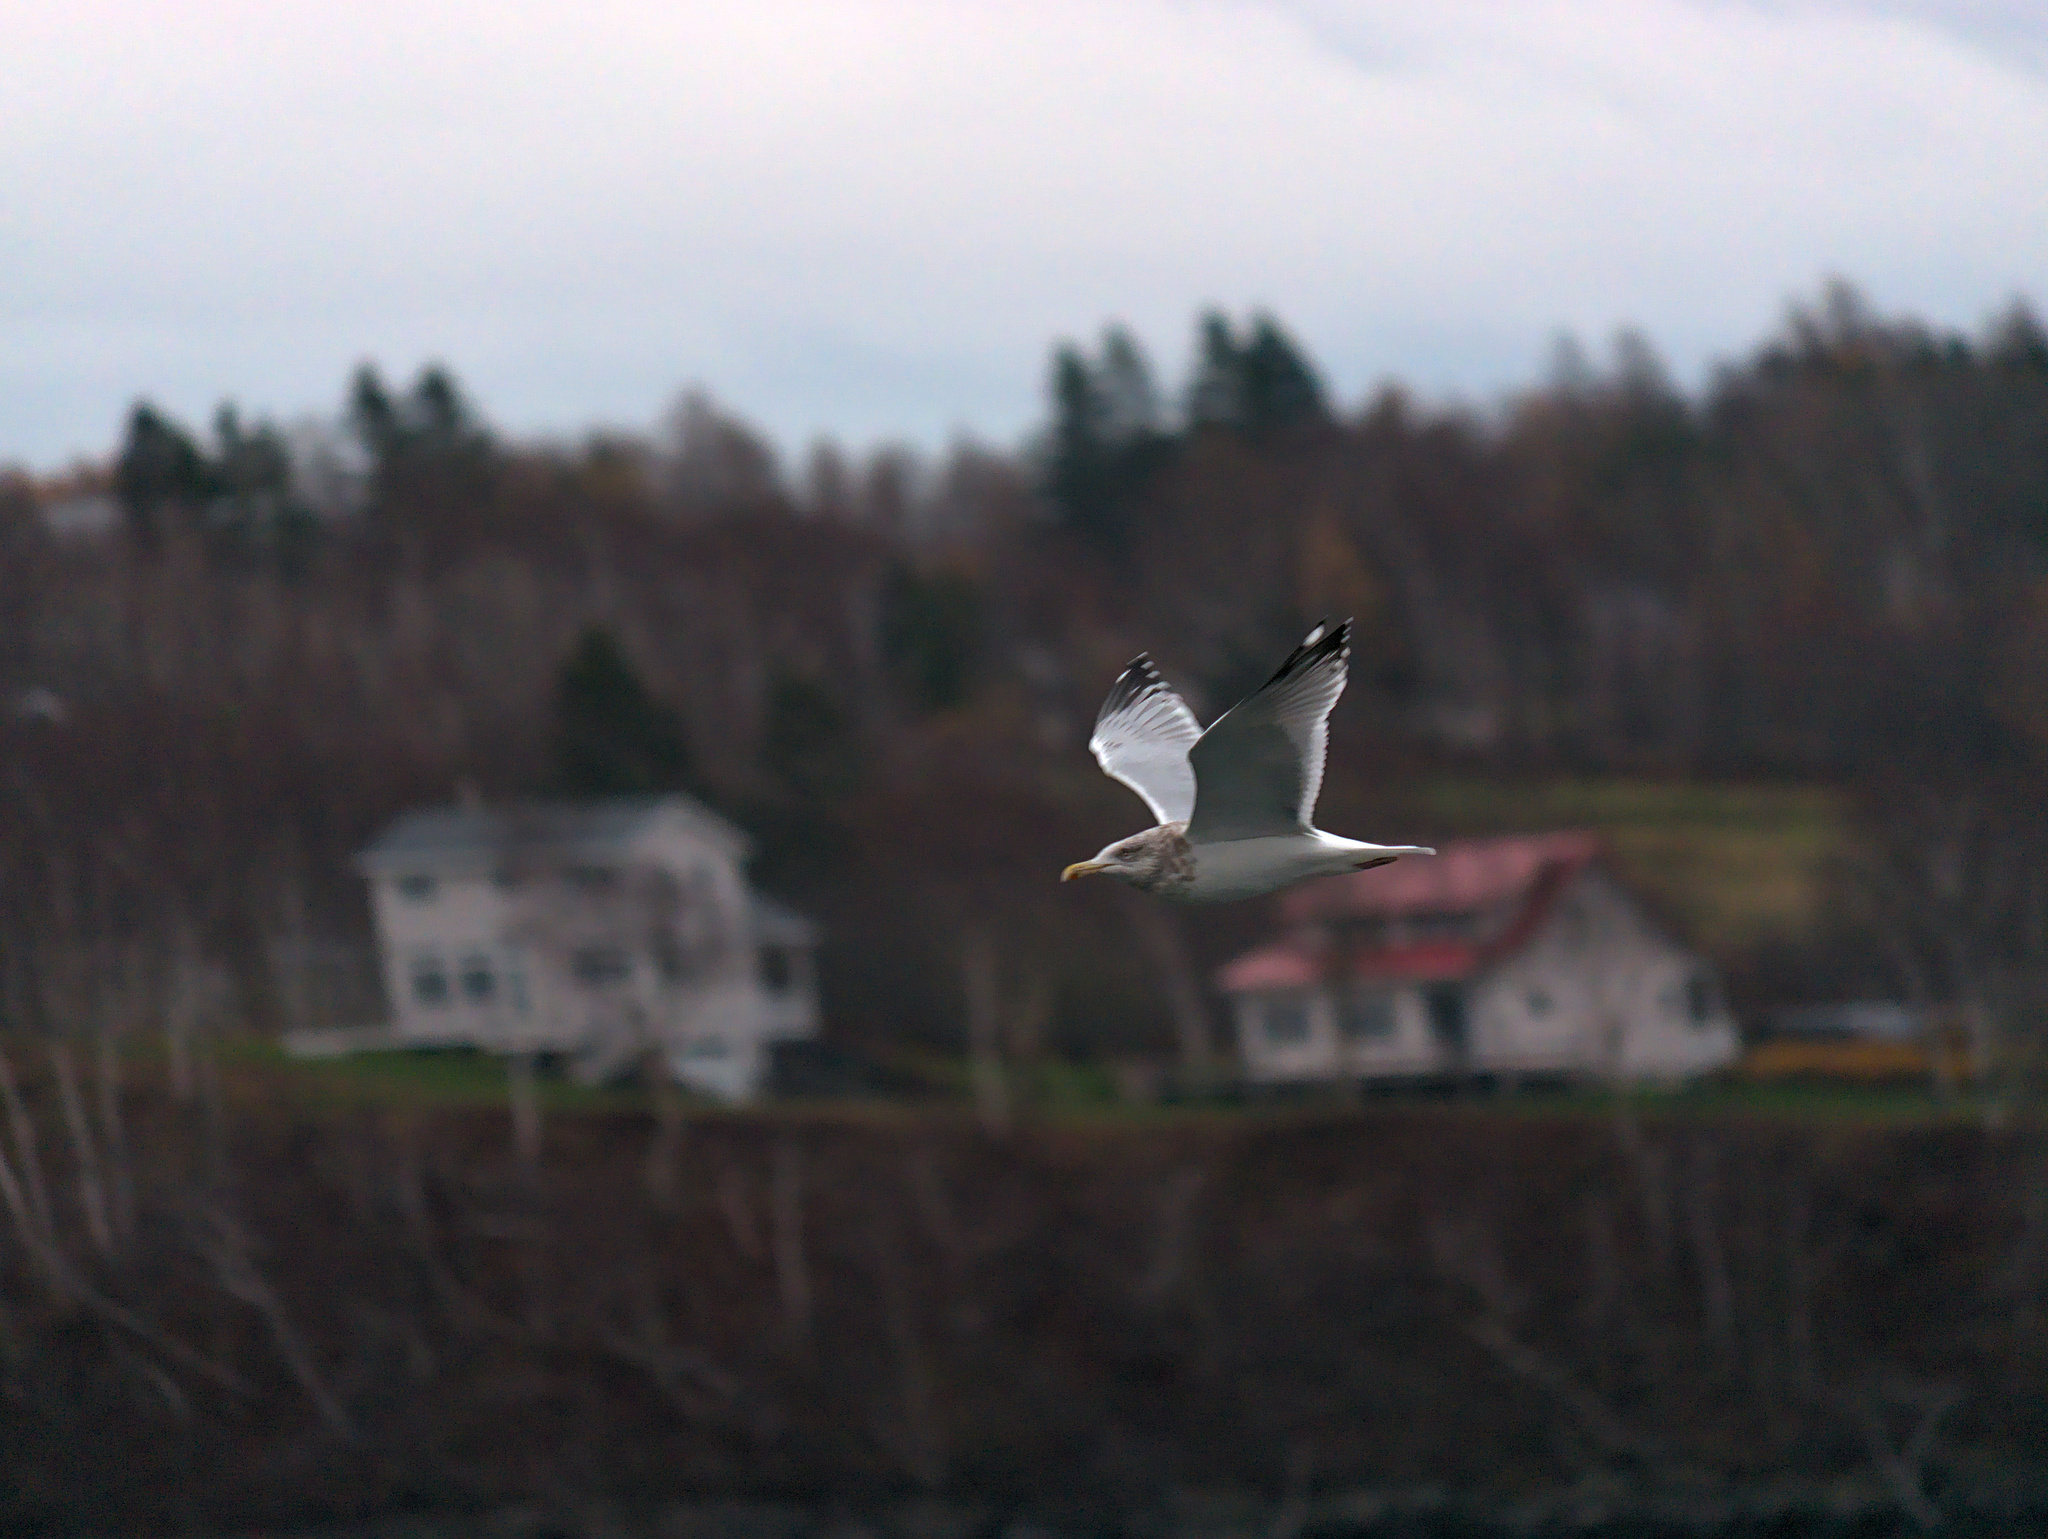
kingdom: Animalia
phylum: Chordata
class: Aves
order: Charadriiformes
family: Laridae
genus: Larus
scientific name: Larus argentatus
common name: Herring gull
